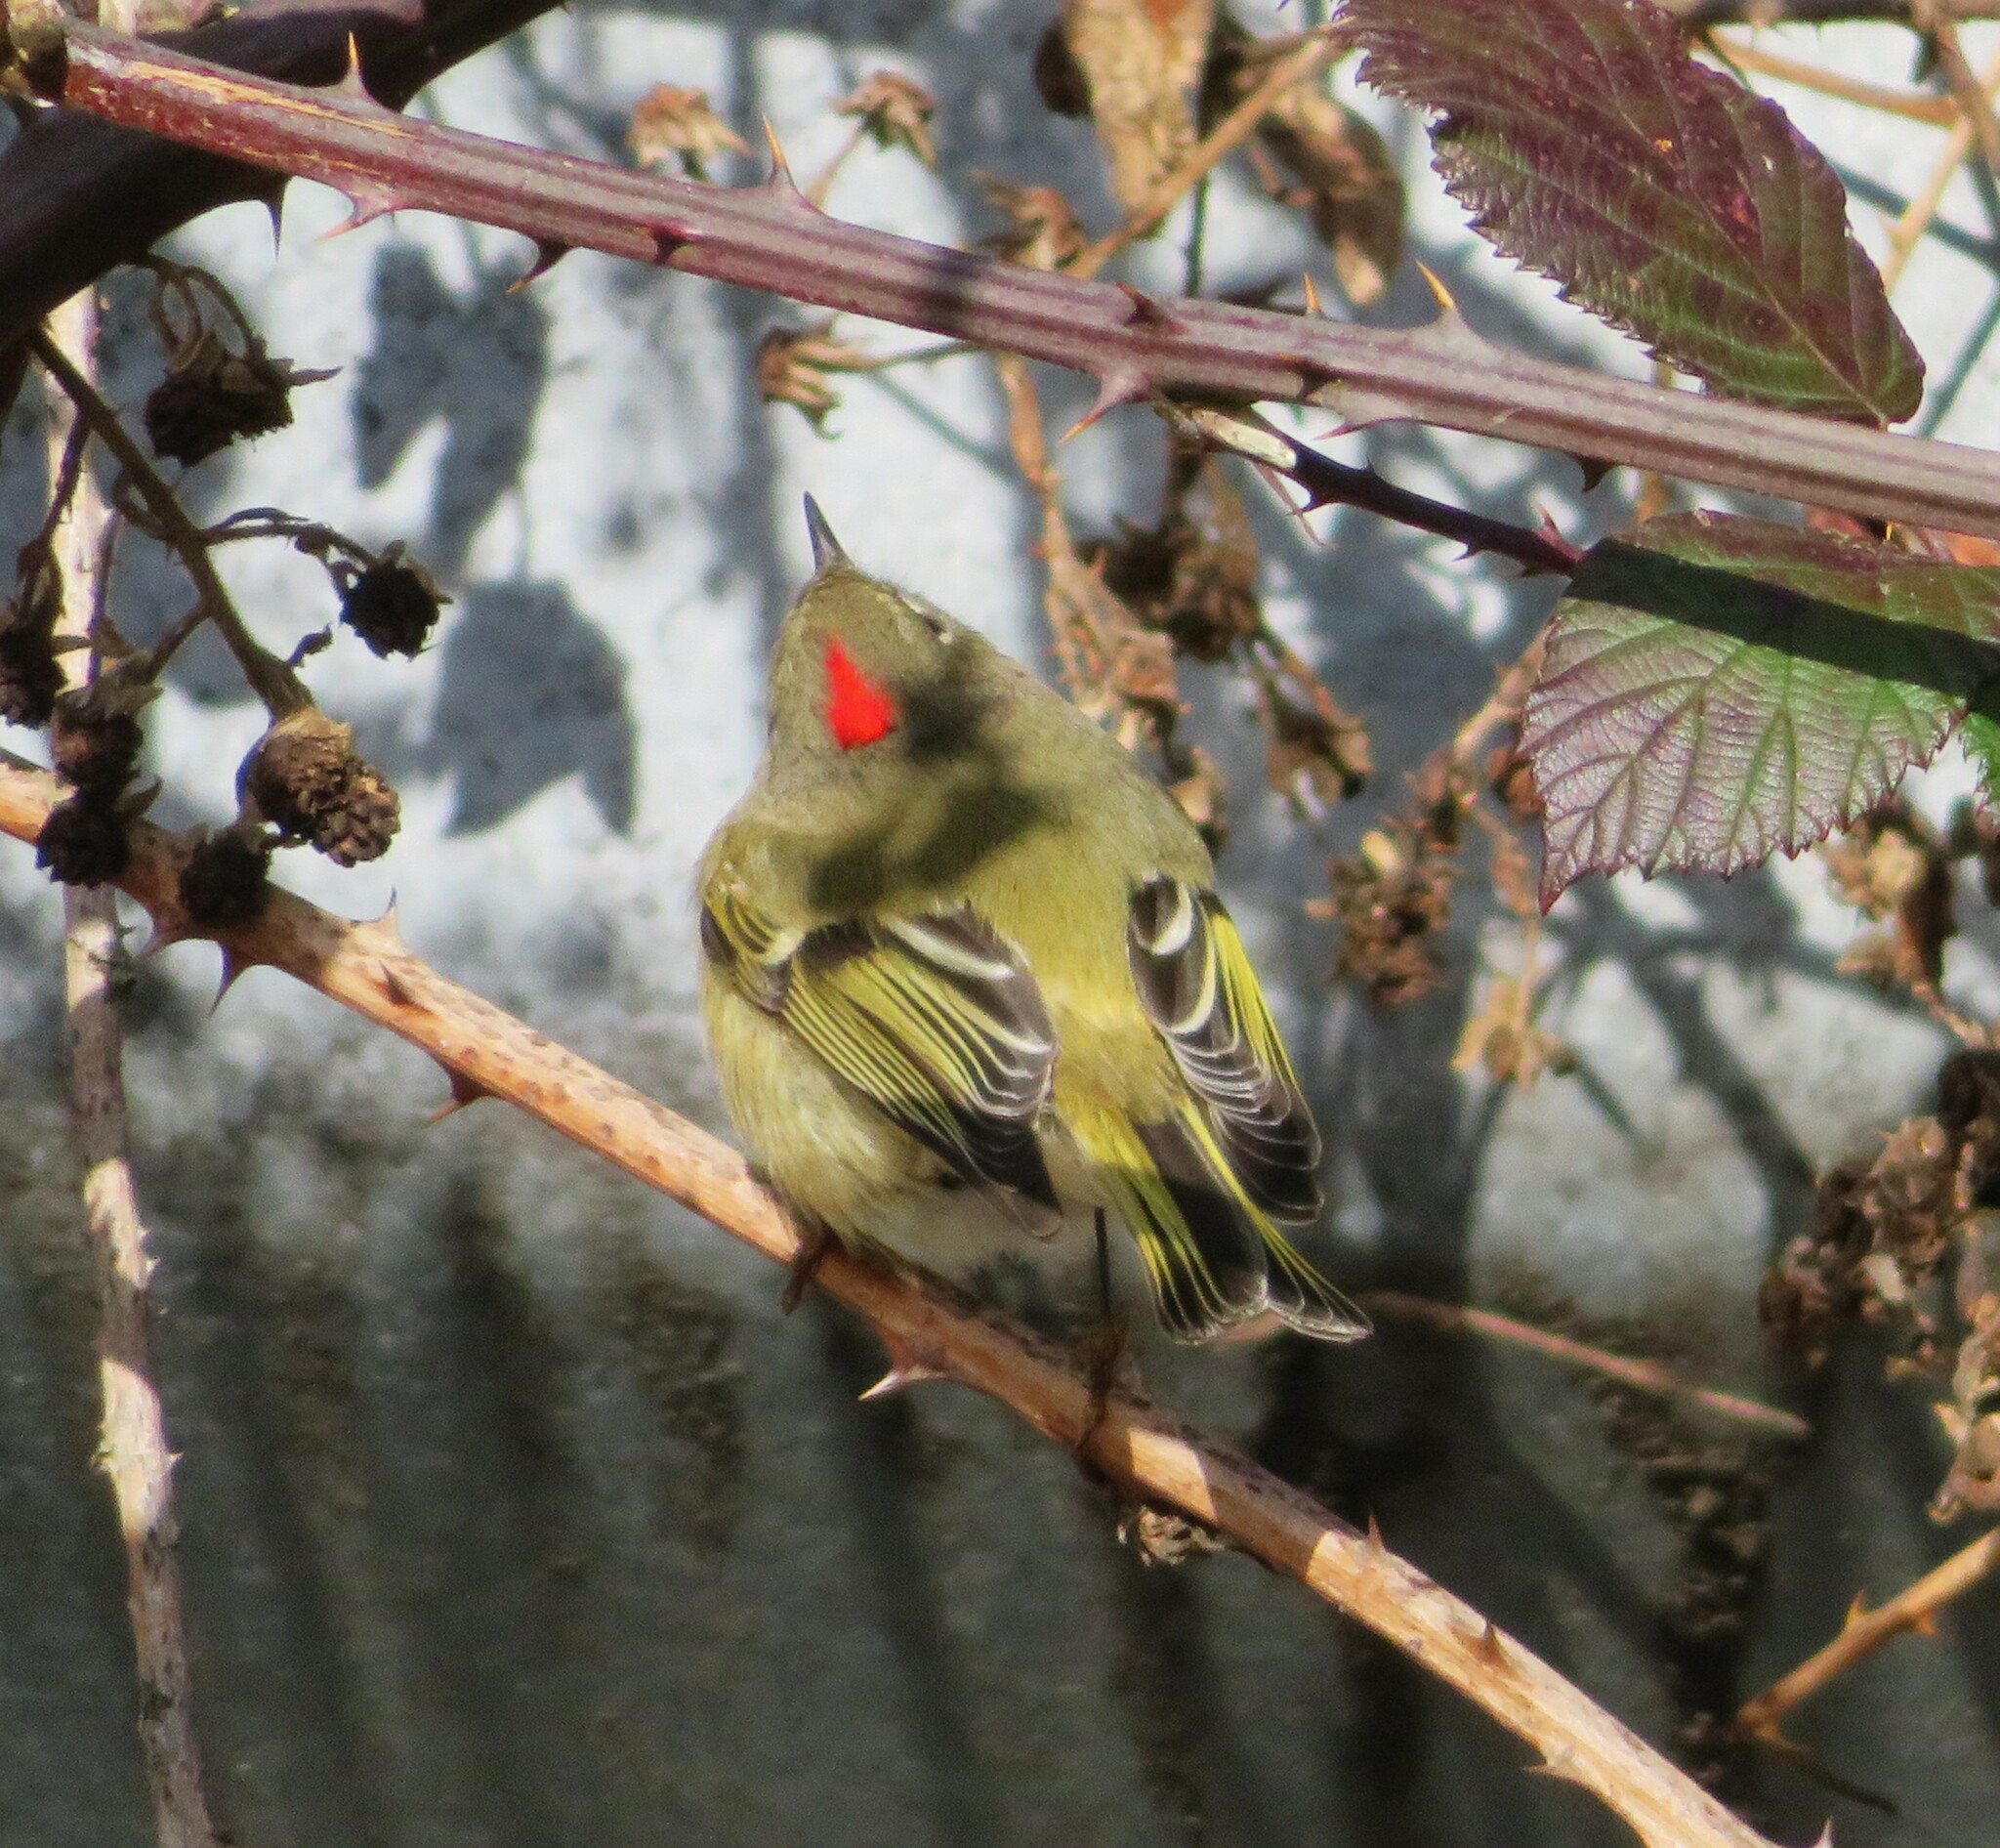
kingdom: Animalia
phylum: Chordata
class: Aves
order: Passeriformes
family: Regulidae
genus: Regulus
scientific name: Regulus calendula
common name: Ruby-crowned kinglet
